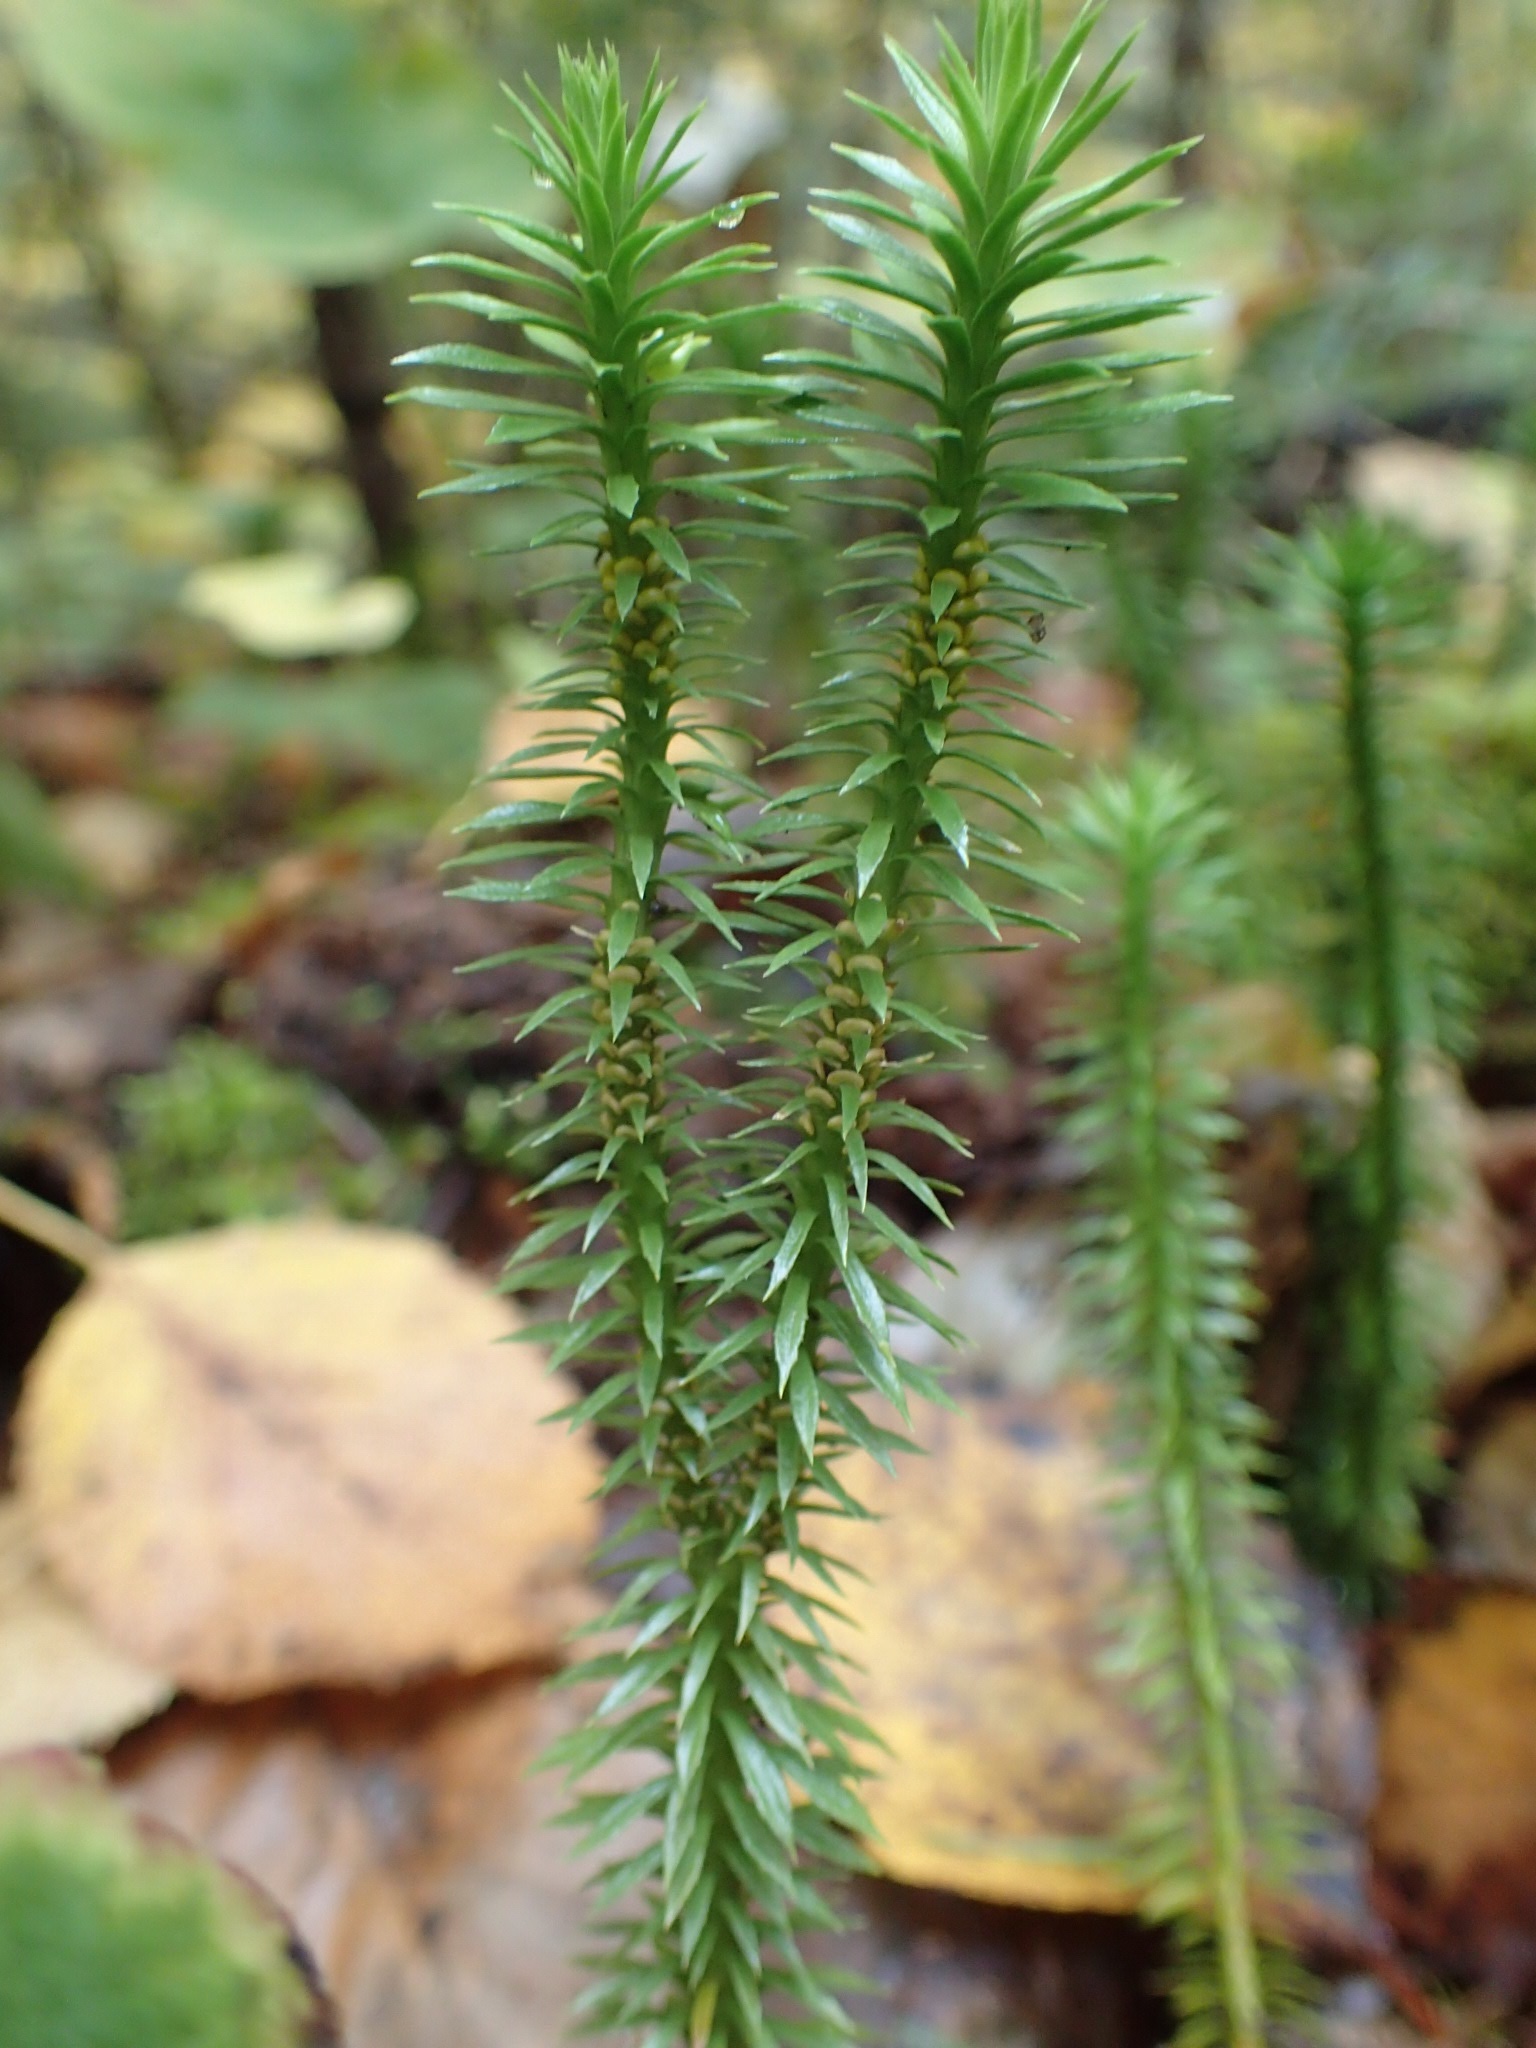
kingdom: Plantae
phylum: Tracheophyta
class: Lycopodiopsida
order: Lycopodiales
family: Lycopodiaceae
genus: Huperzia
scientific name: Huperzia lucidula
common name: Shining clubmoss
